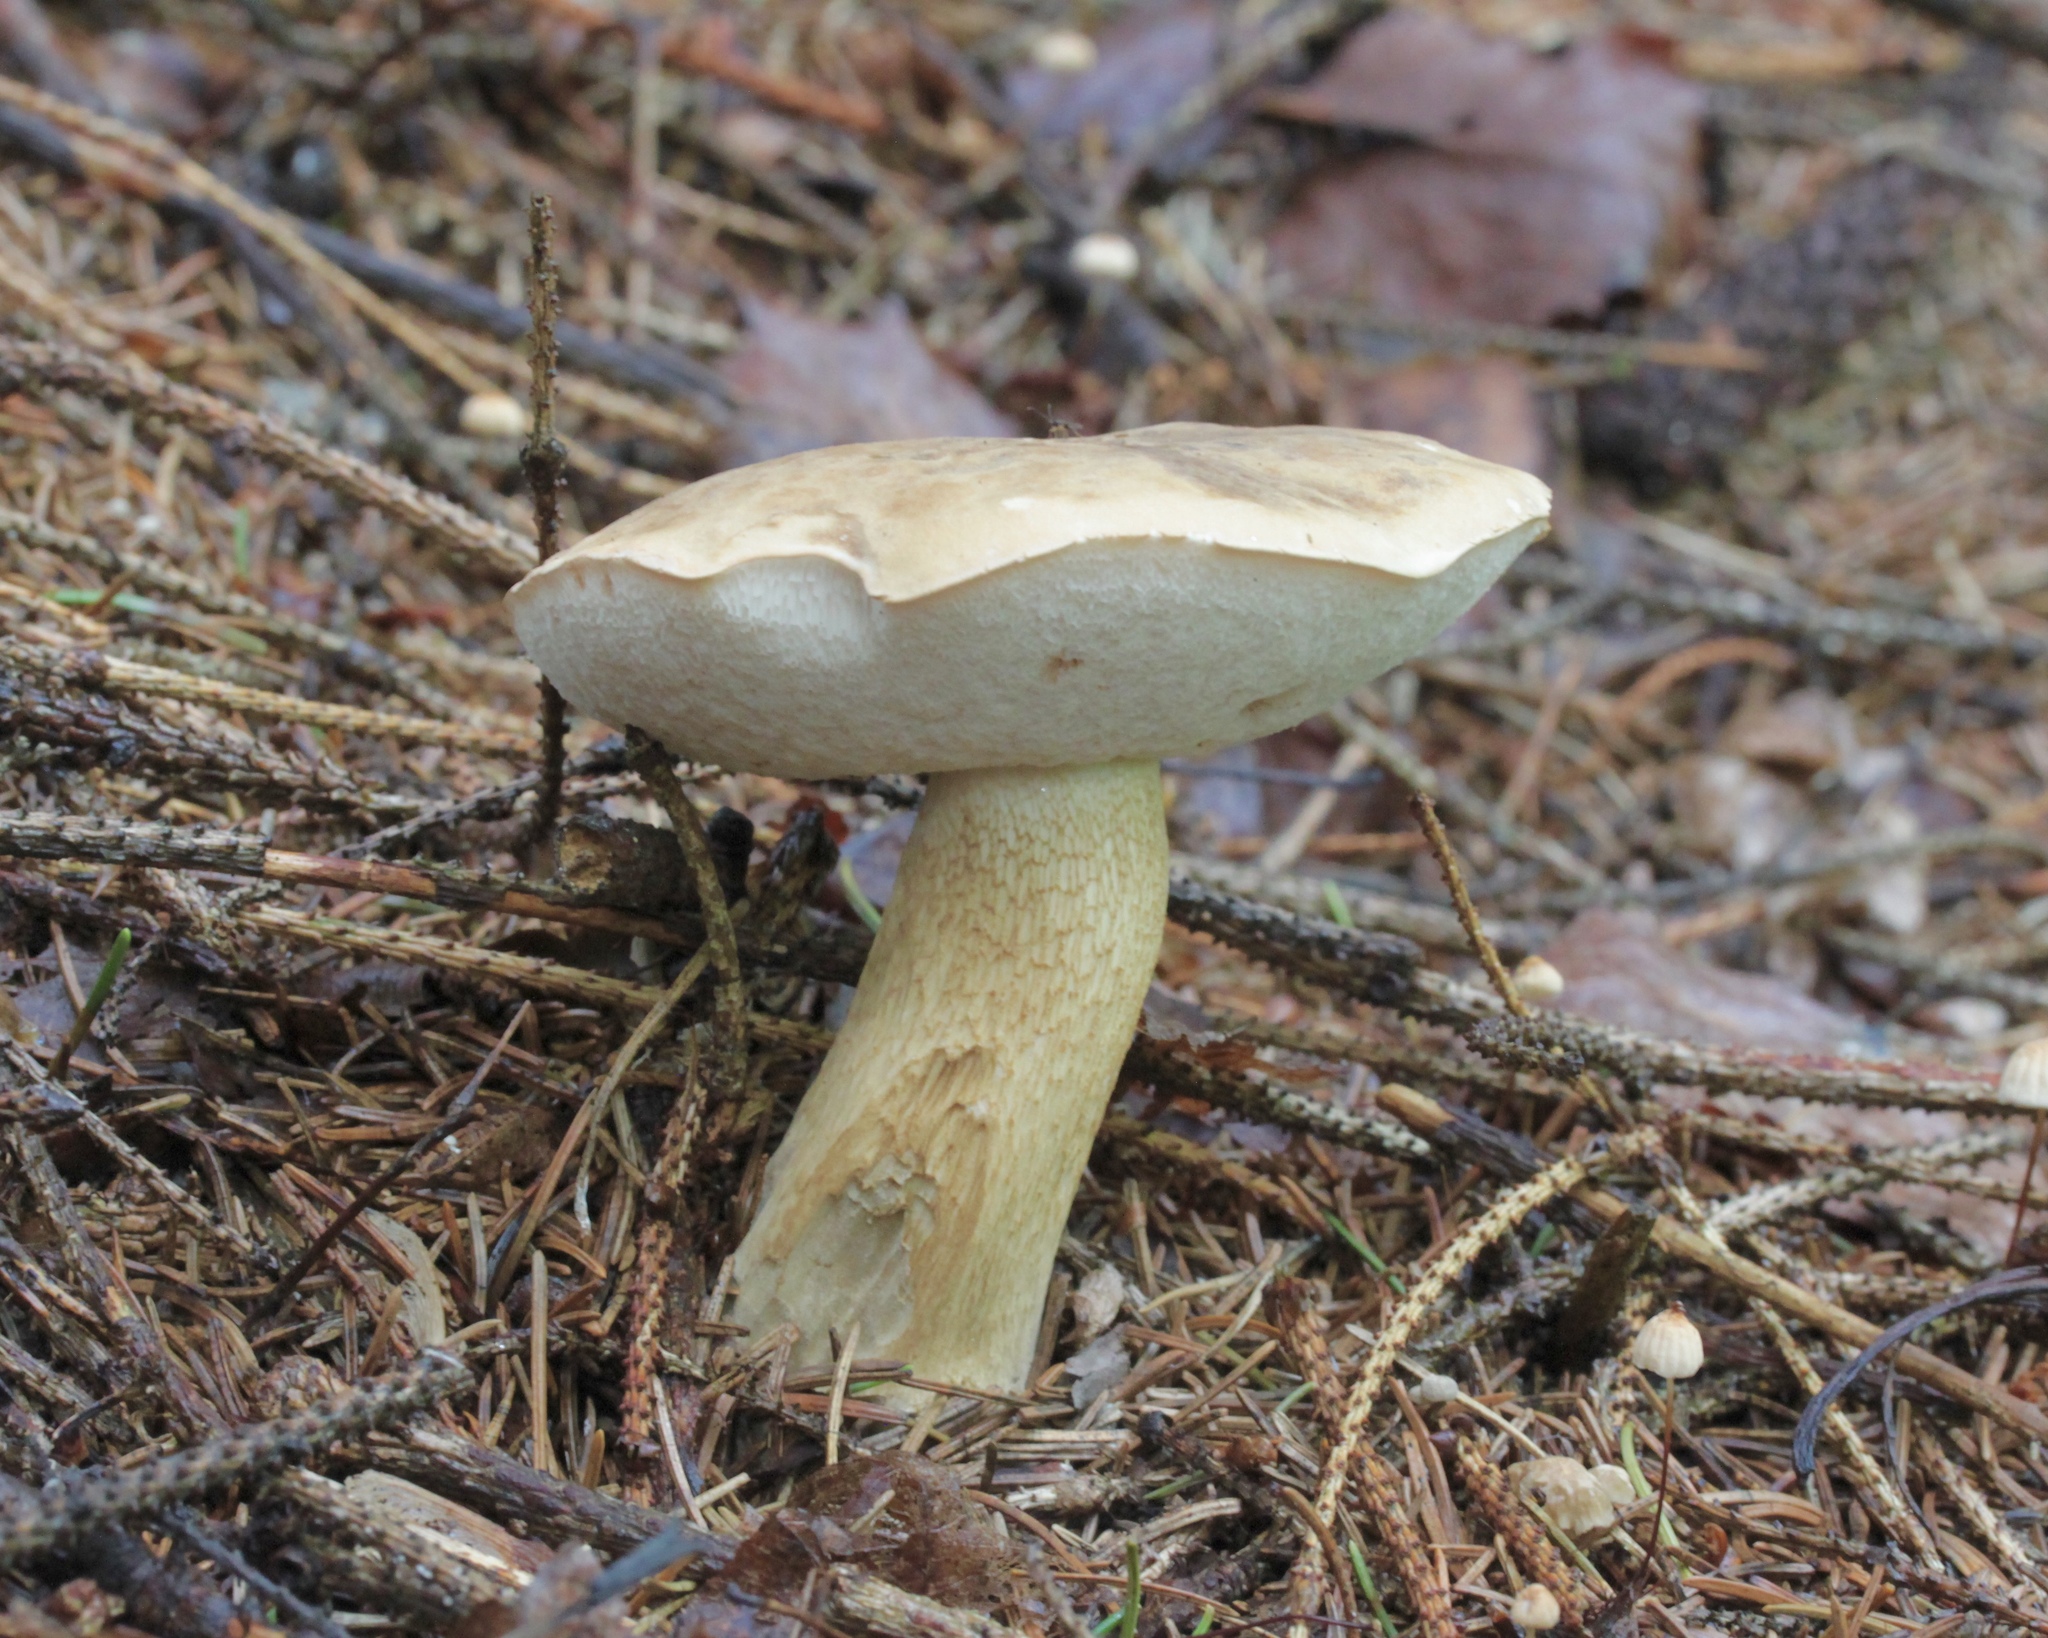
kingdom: Fungi
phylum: Basidiomycota
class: Agaricomycetes
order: Boletales
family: Boletaceae
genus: Tylopilus
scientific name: Tylopilus felleus
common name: Bitter bolete
